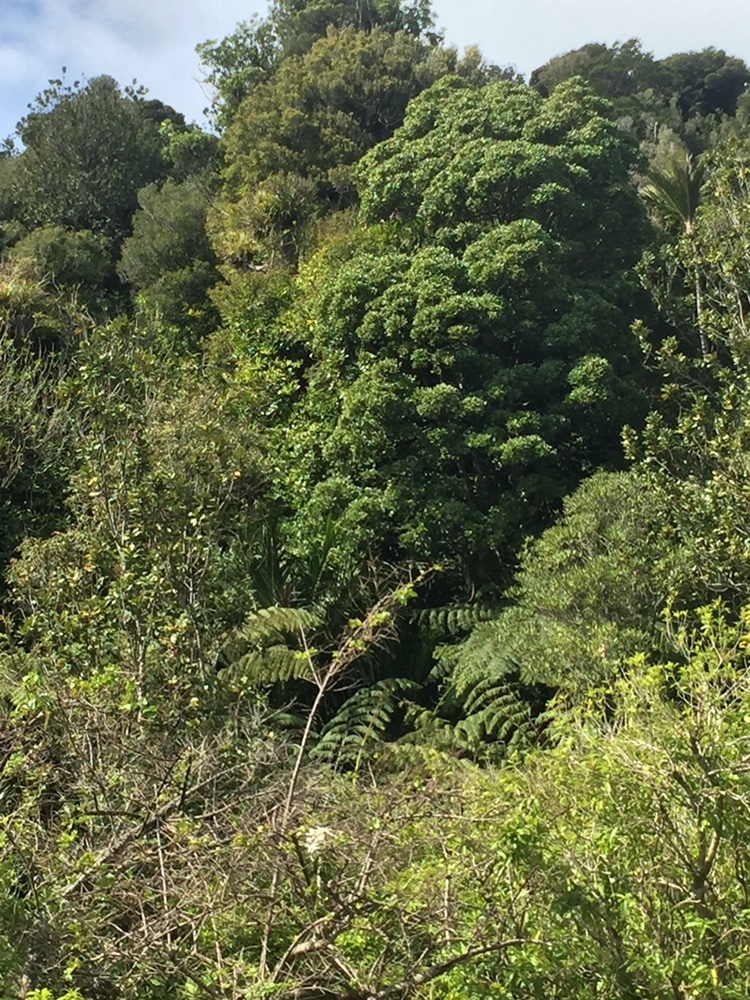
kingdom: Plantae
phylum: Tracheophyta
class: Magnoliopsida
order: Laurales
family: Atherospermataceae
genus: Laurelia
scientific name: Laurelia novae-zelandiae
